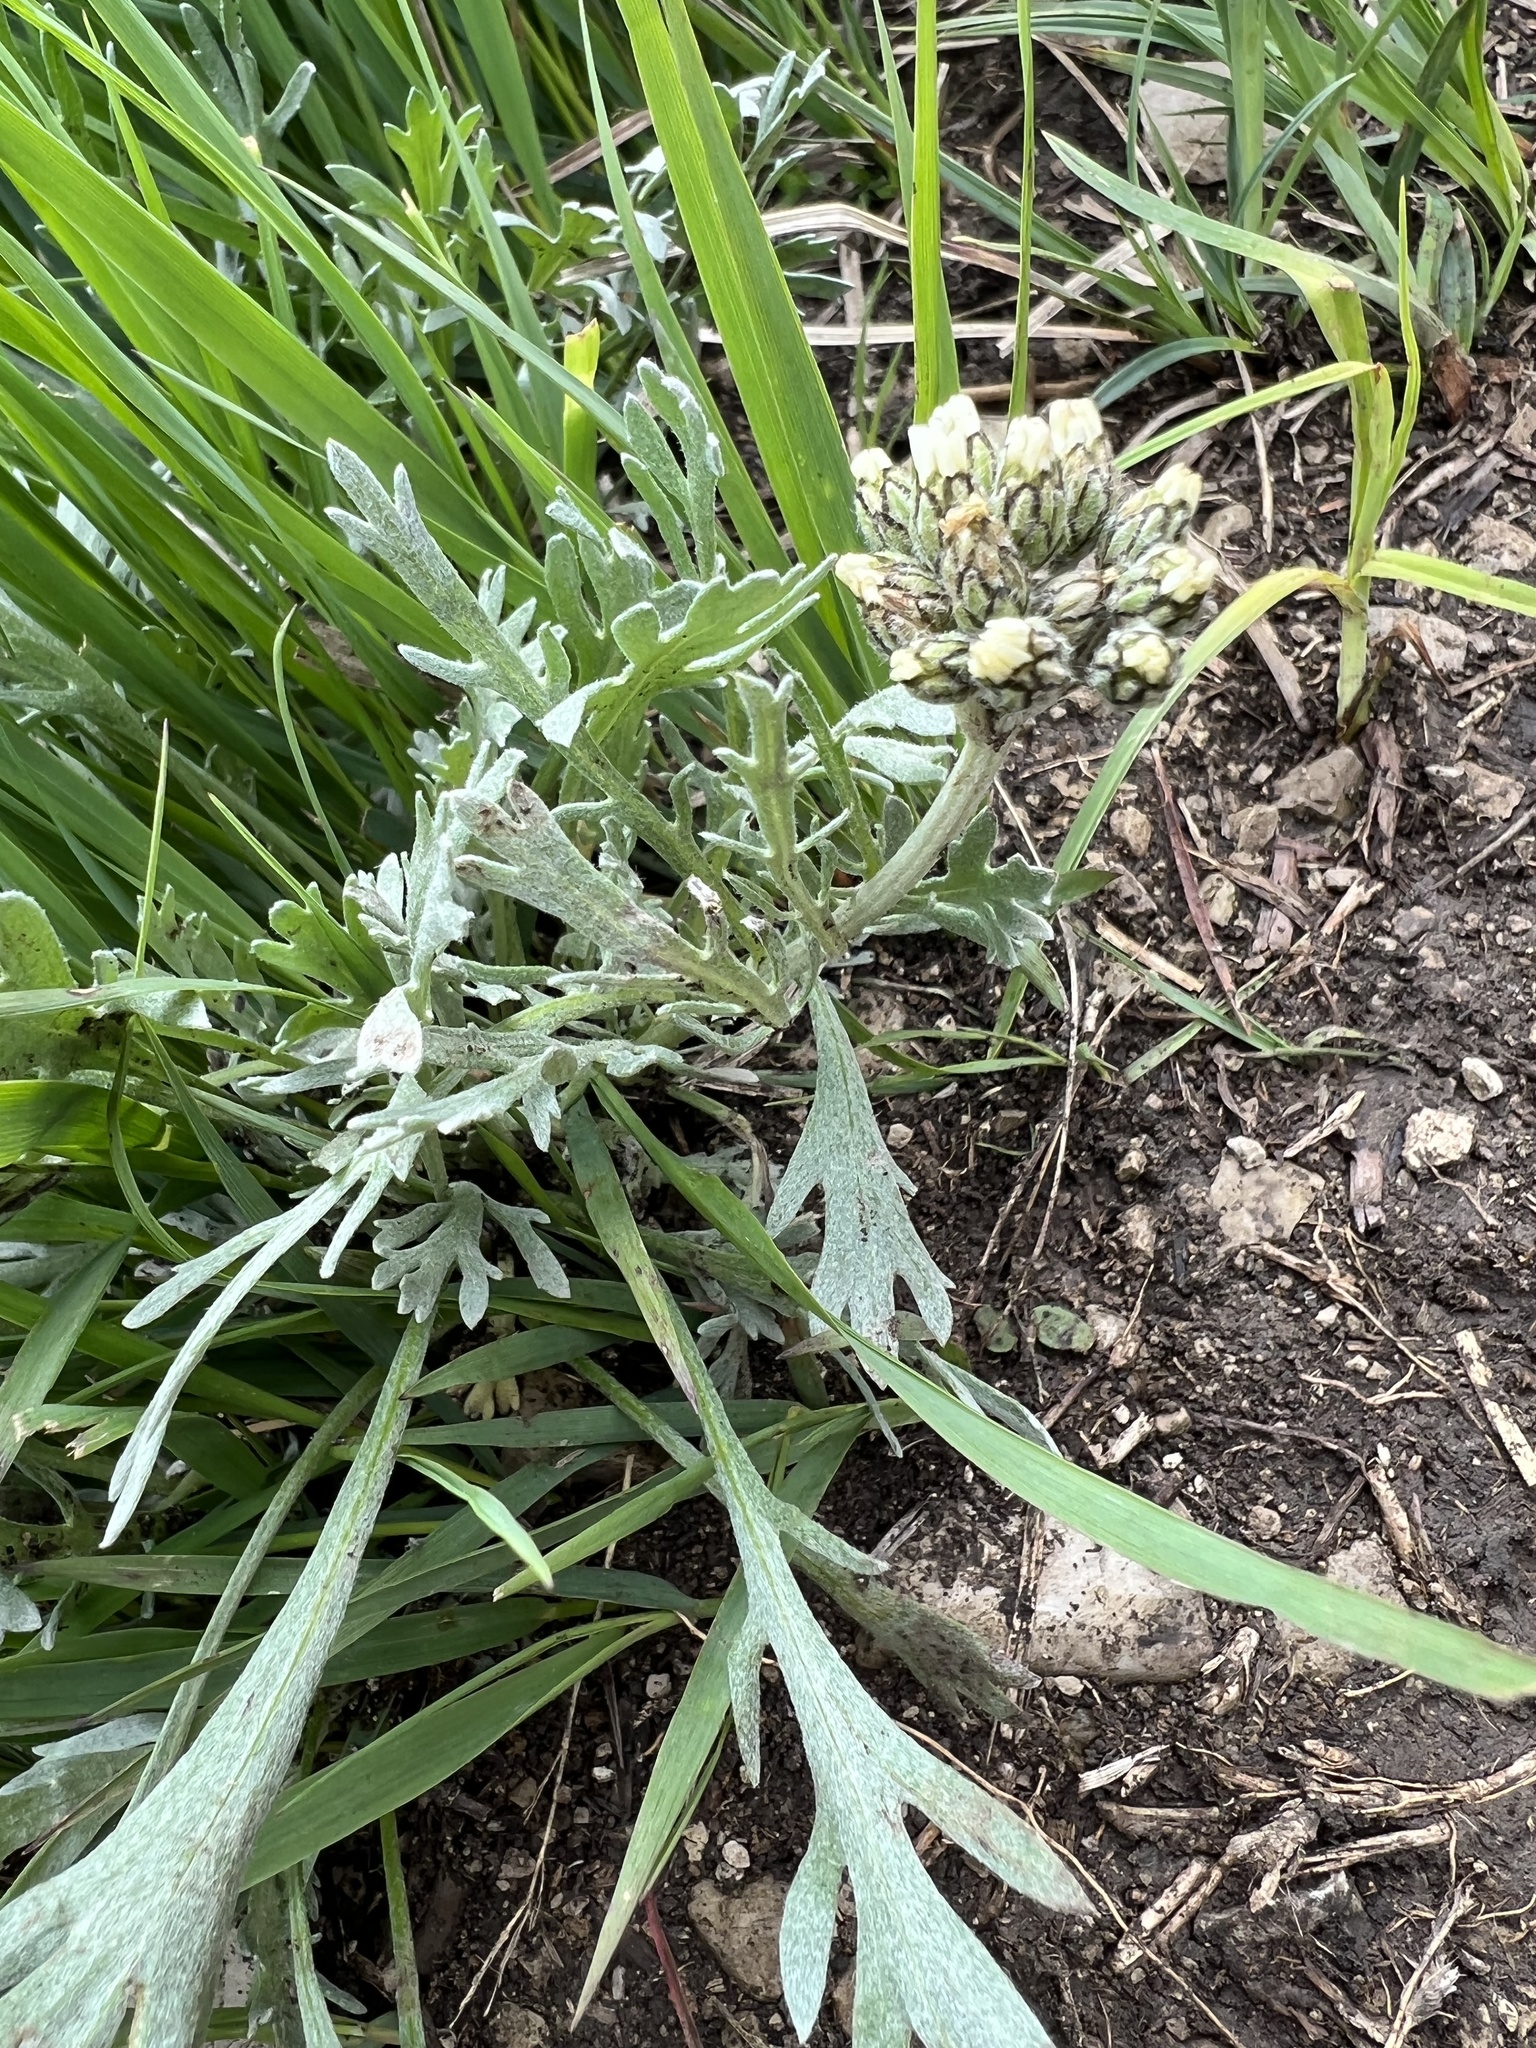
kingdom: Plantae
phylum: Tracheophyta
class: Magnoliopsida
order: Asterales
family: Asteraceae
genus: Achillea
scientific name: Achillea clavennae
